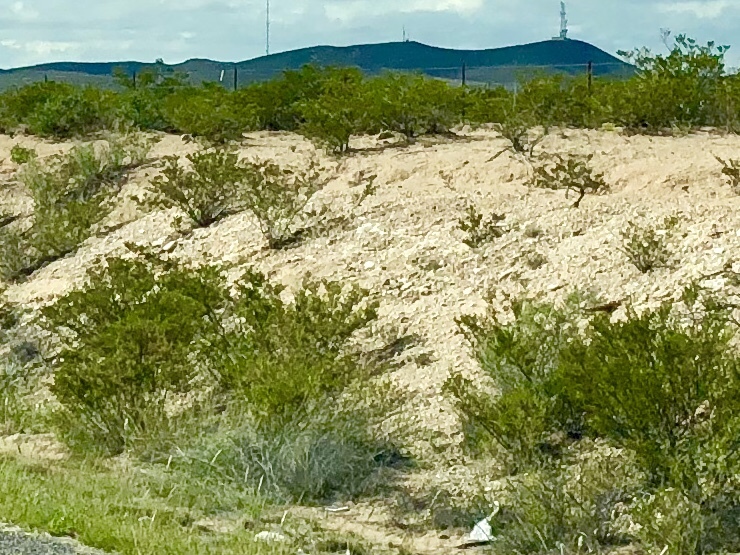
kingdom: Plantae
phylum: Tracheophyta
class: Magnoliopsida
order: Zygophyllales
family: Zygophyllaceae
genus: Larrea
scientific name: Larrea tridentata
